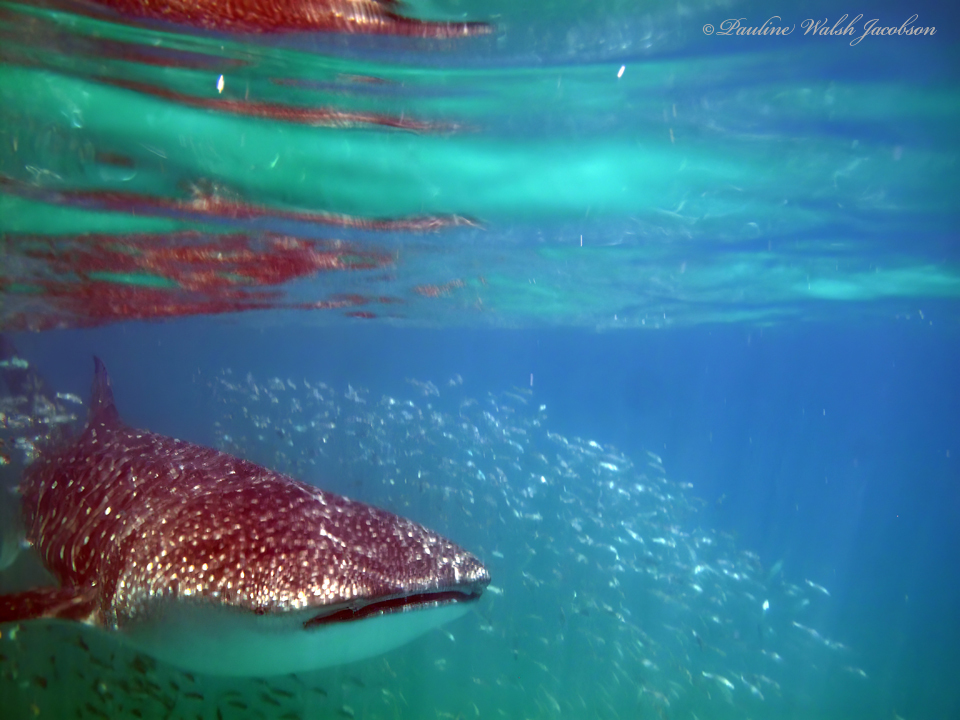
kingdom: Animalia
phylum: Chordata
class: Elasmobranchii
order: Orectolobiformes
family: Rhincodontidae
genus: Rhincodon
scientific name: Rhincodon typus
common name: Whale shark
